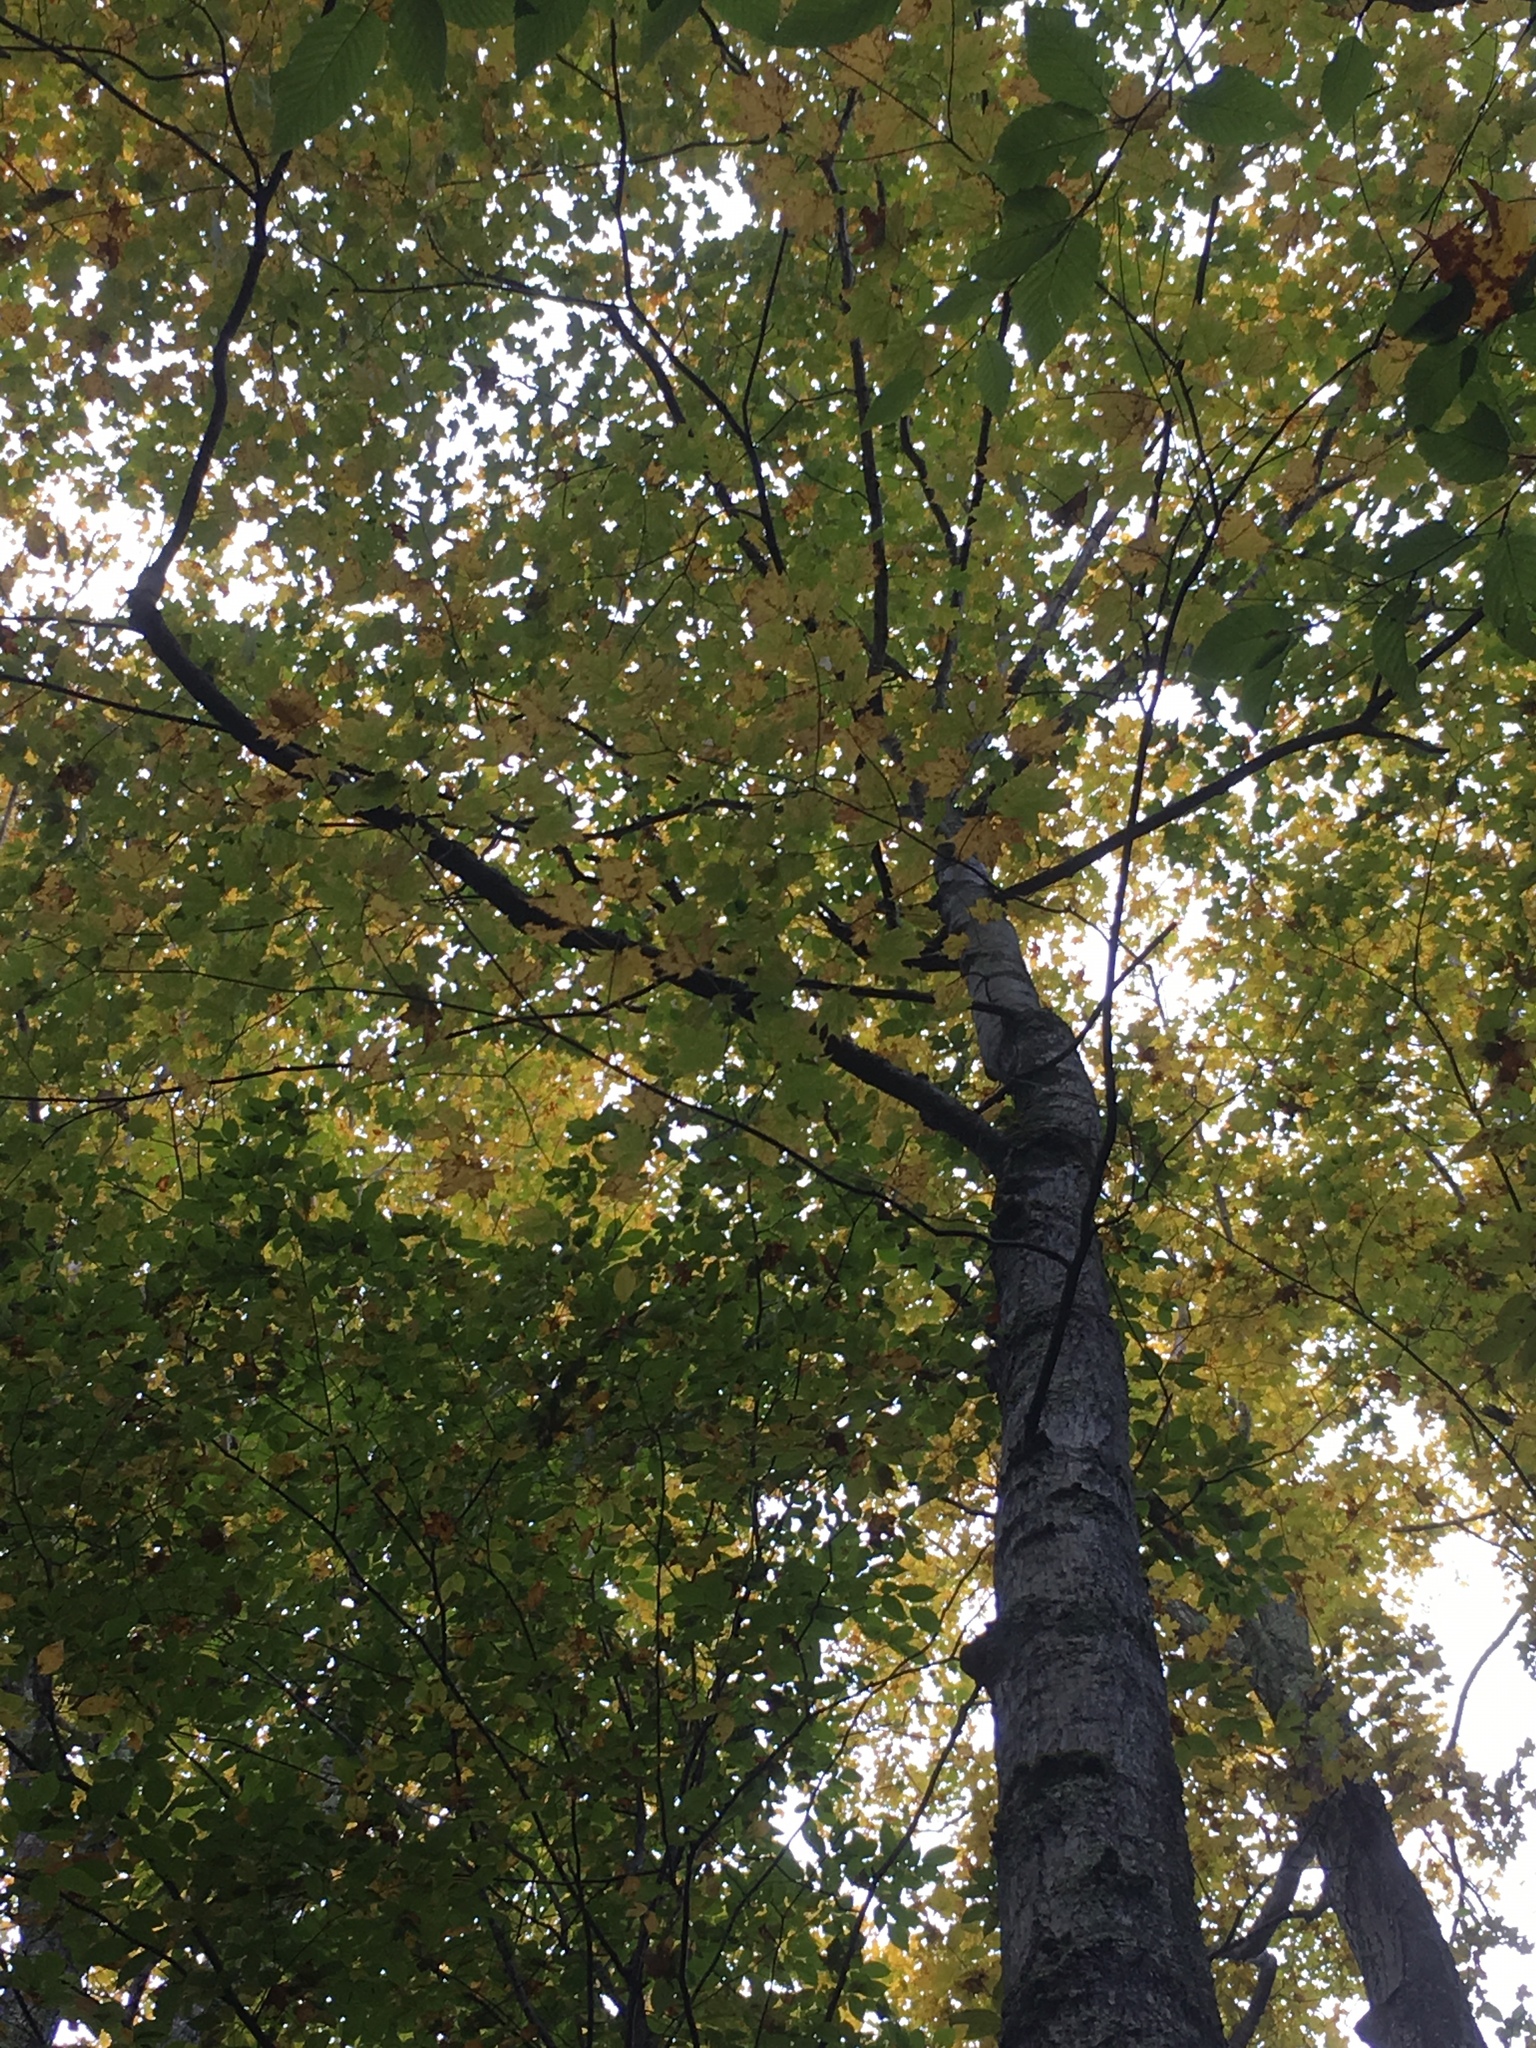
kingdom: Plantae
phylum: Tracheophyta
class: Magnoliopsida
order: Sapindales
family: Sapindaceae
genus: Acer
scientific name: Acer saccharum
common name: Sugar maple
